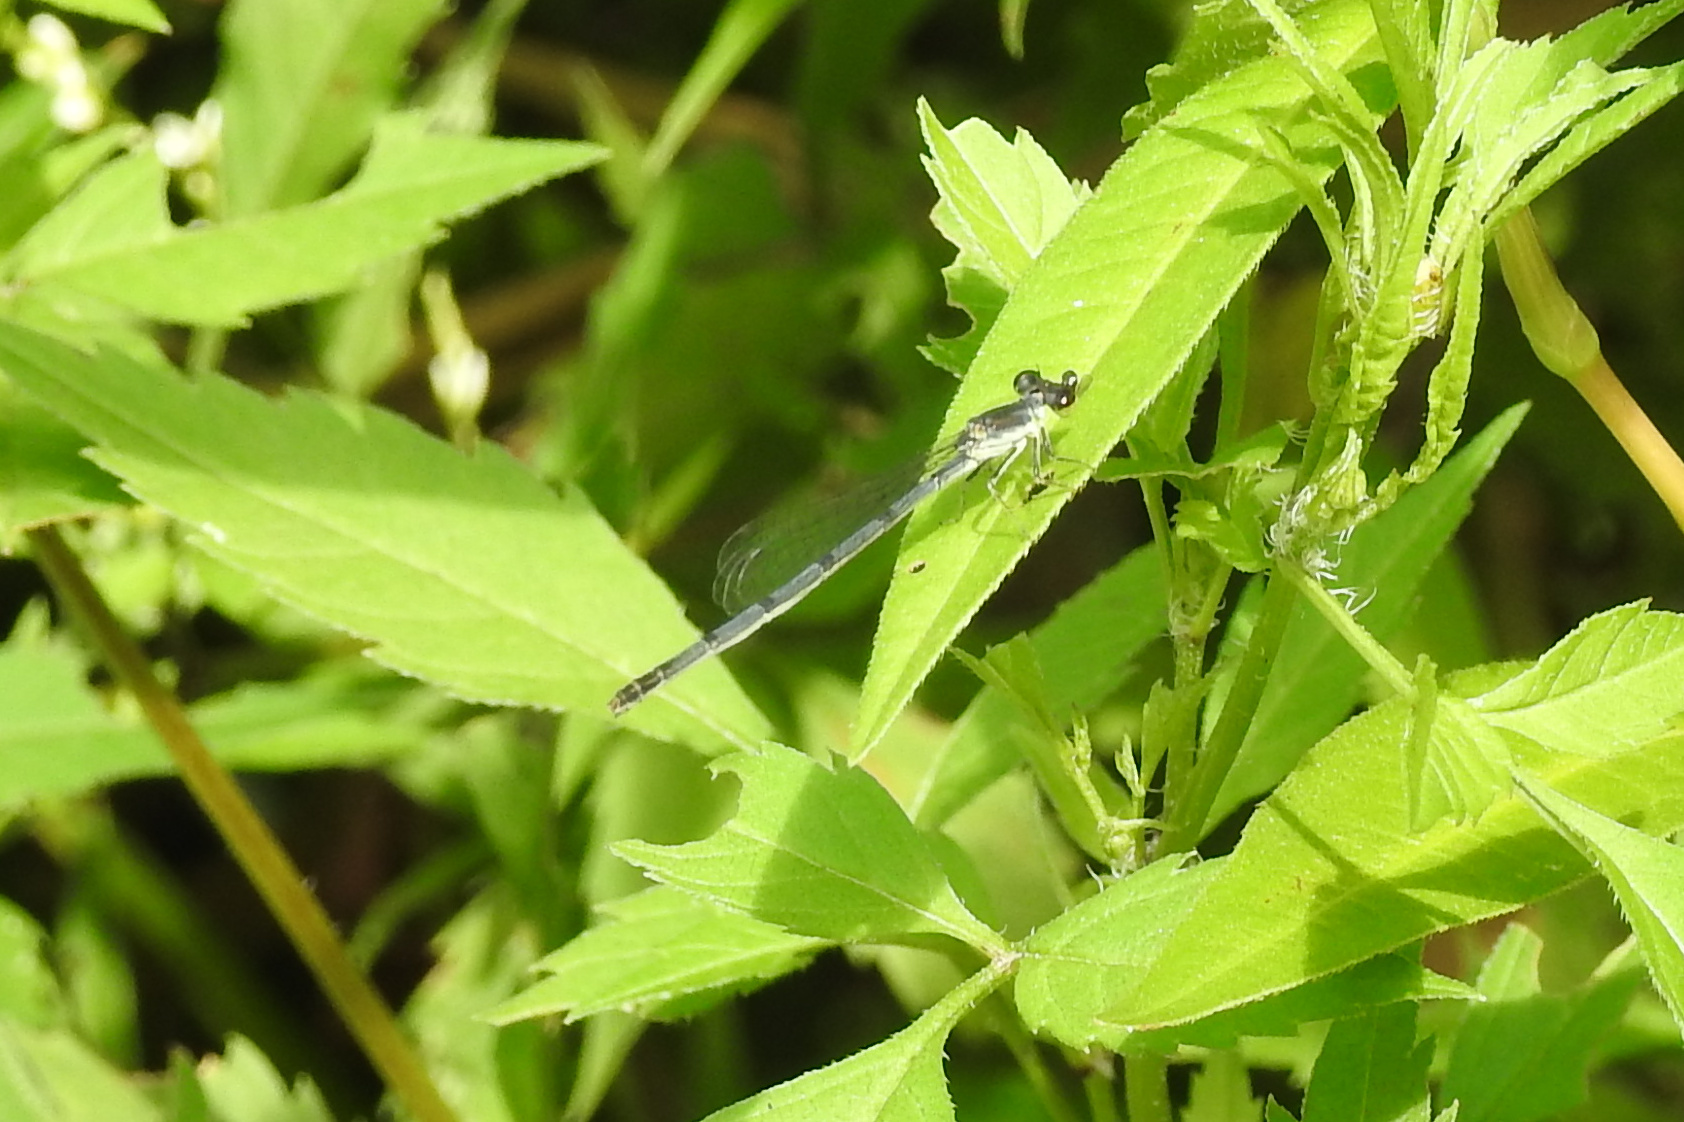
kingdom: Animalia
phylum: Arthropoda
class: Insecta
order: Odonata
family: Coenagrionidae
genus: Ischnura
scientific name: Ischnura posita
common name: Fragile forktail
